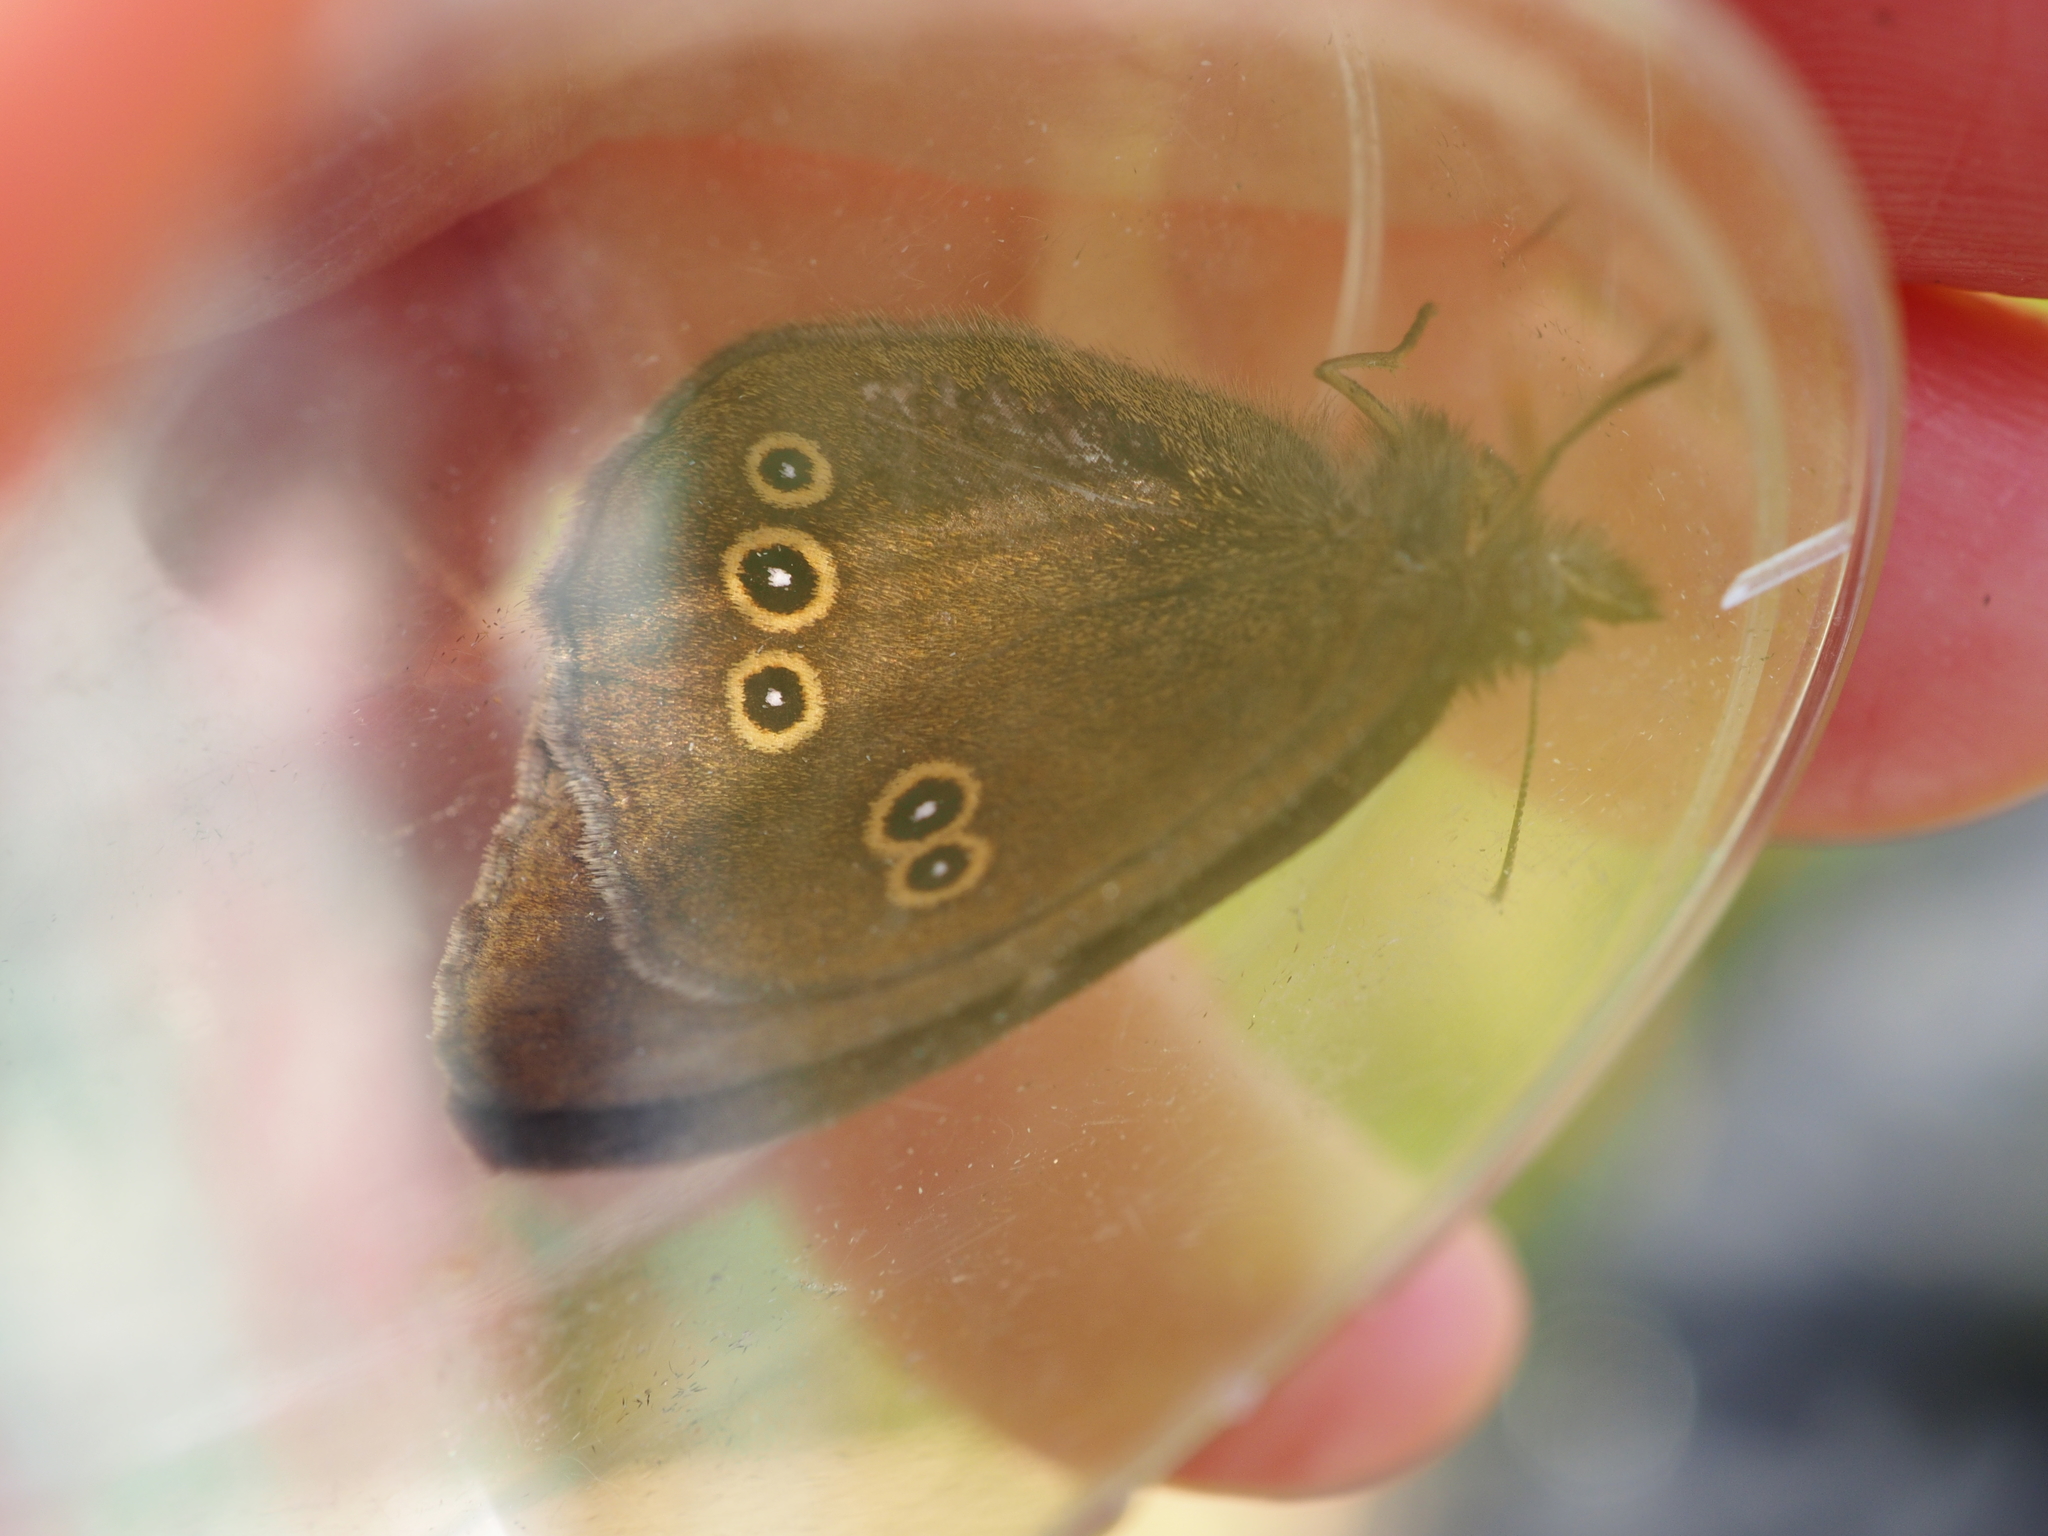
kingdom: Animalia
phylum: Arthropoda
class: Insecta
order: Lepidoptera
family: Nymphalidae
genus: Aphantopus
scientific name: Aphantopus hyperantus
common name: Ringlet
